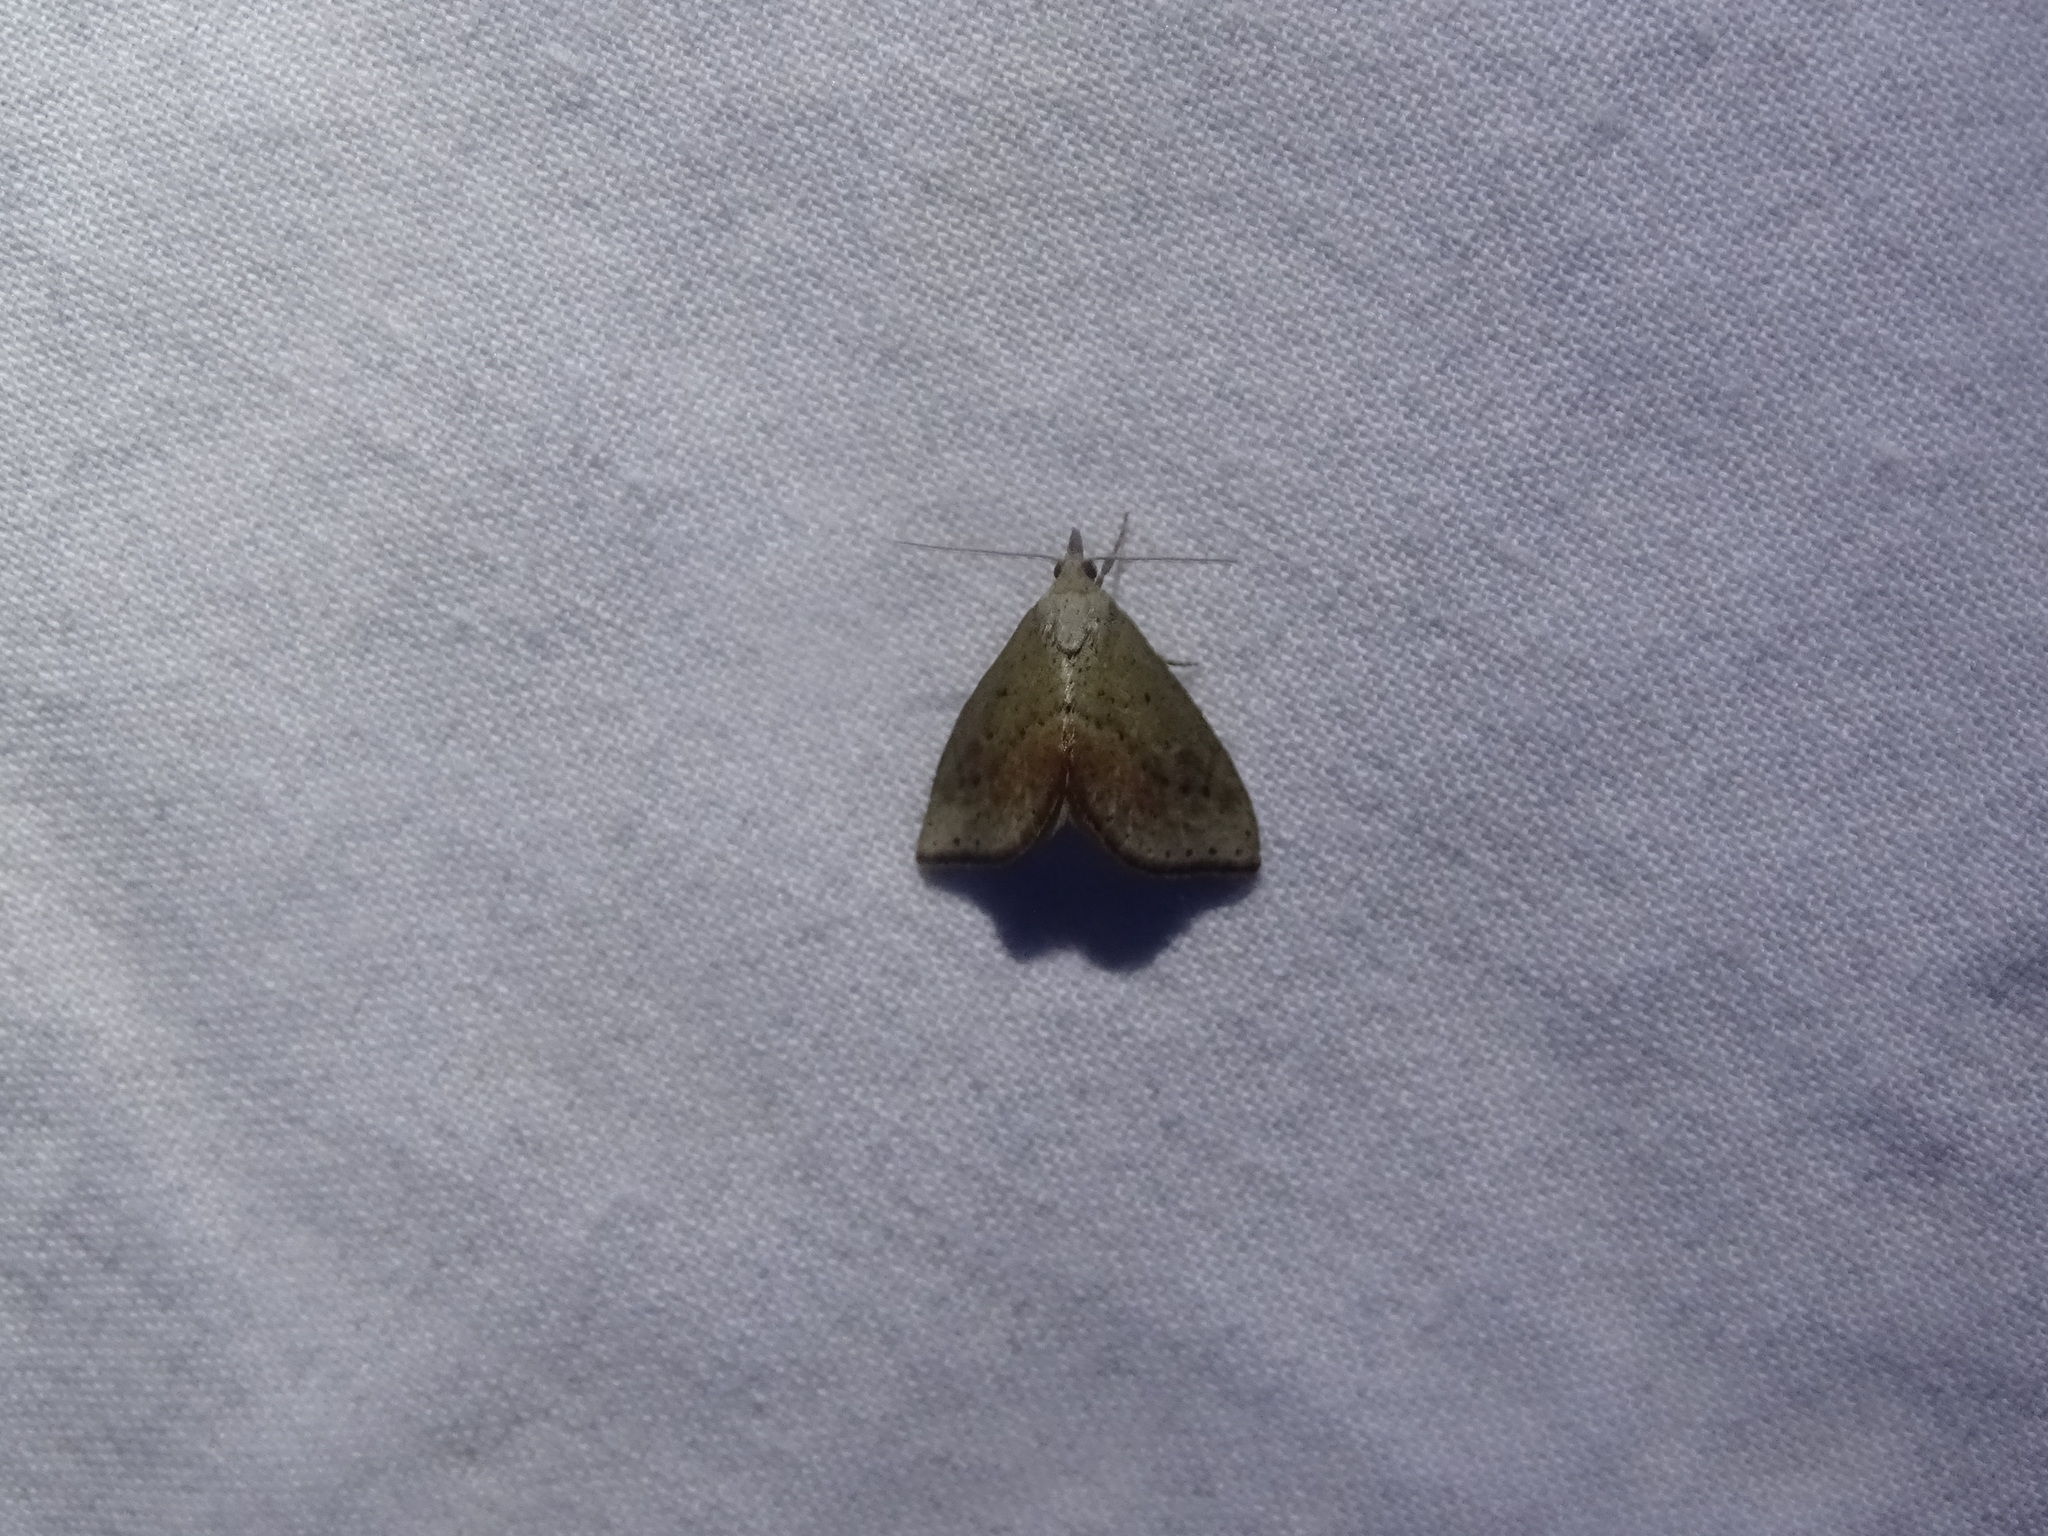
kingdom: Animalia
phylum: Arthropoda
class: Insecta
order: Lepidoptera
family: Noctuidae
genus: Proroblemma
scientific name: Proroblemma testa
